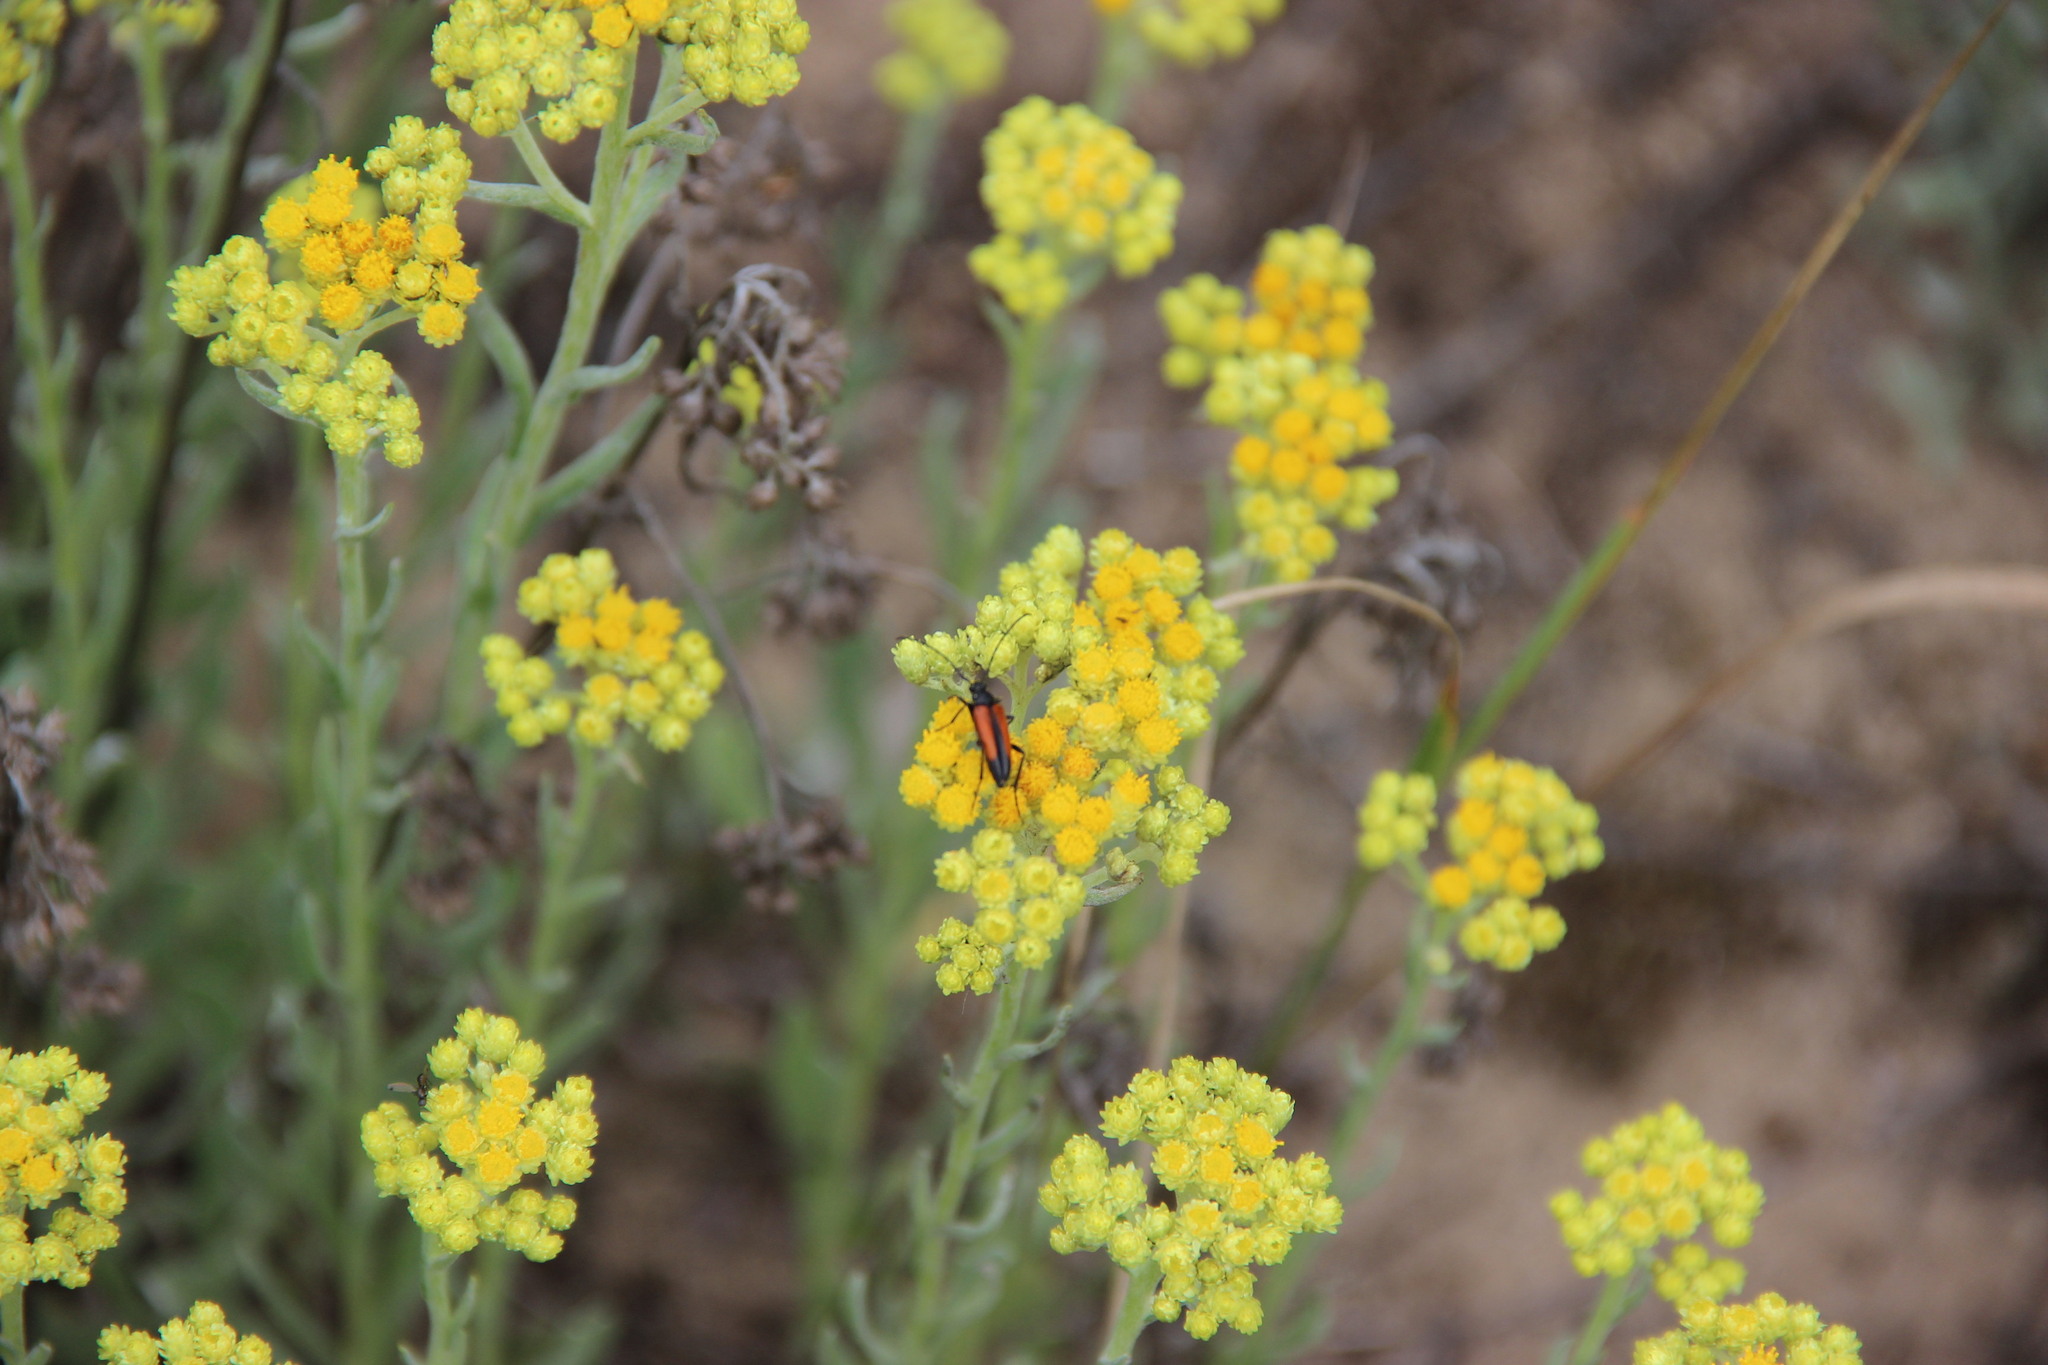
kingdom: Plantae
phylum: Tracheophyta
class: Magnoliopsida
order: Asterales
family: Asteraceae
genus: Helichrysum
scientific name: Helichrysum arenarium
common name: Strawflower
